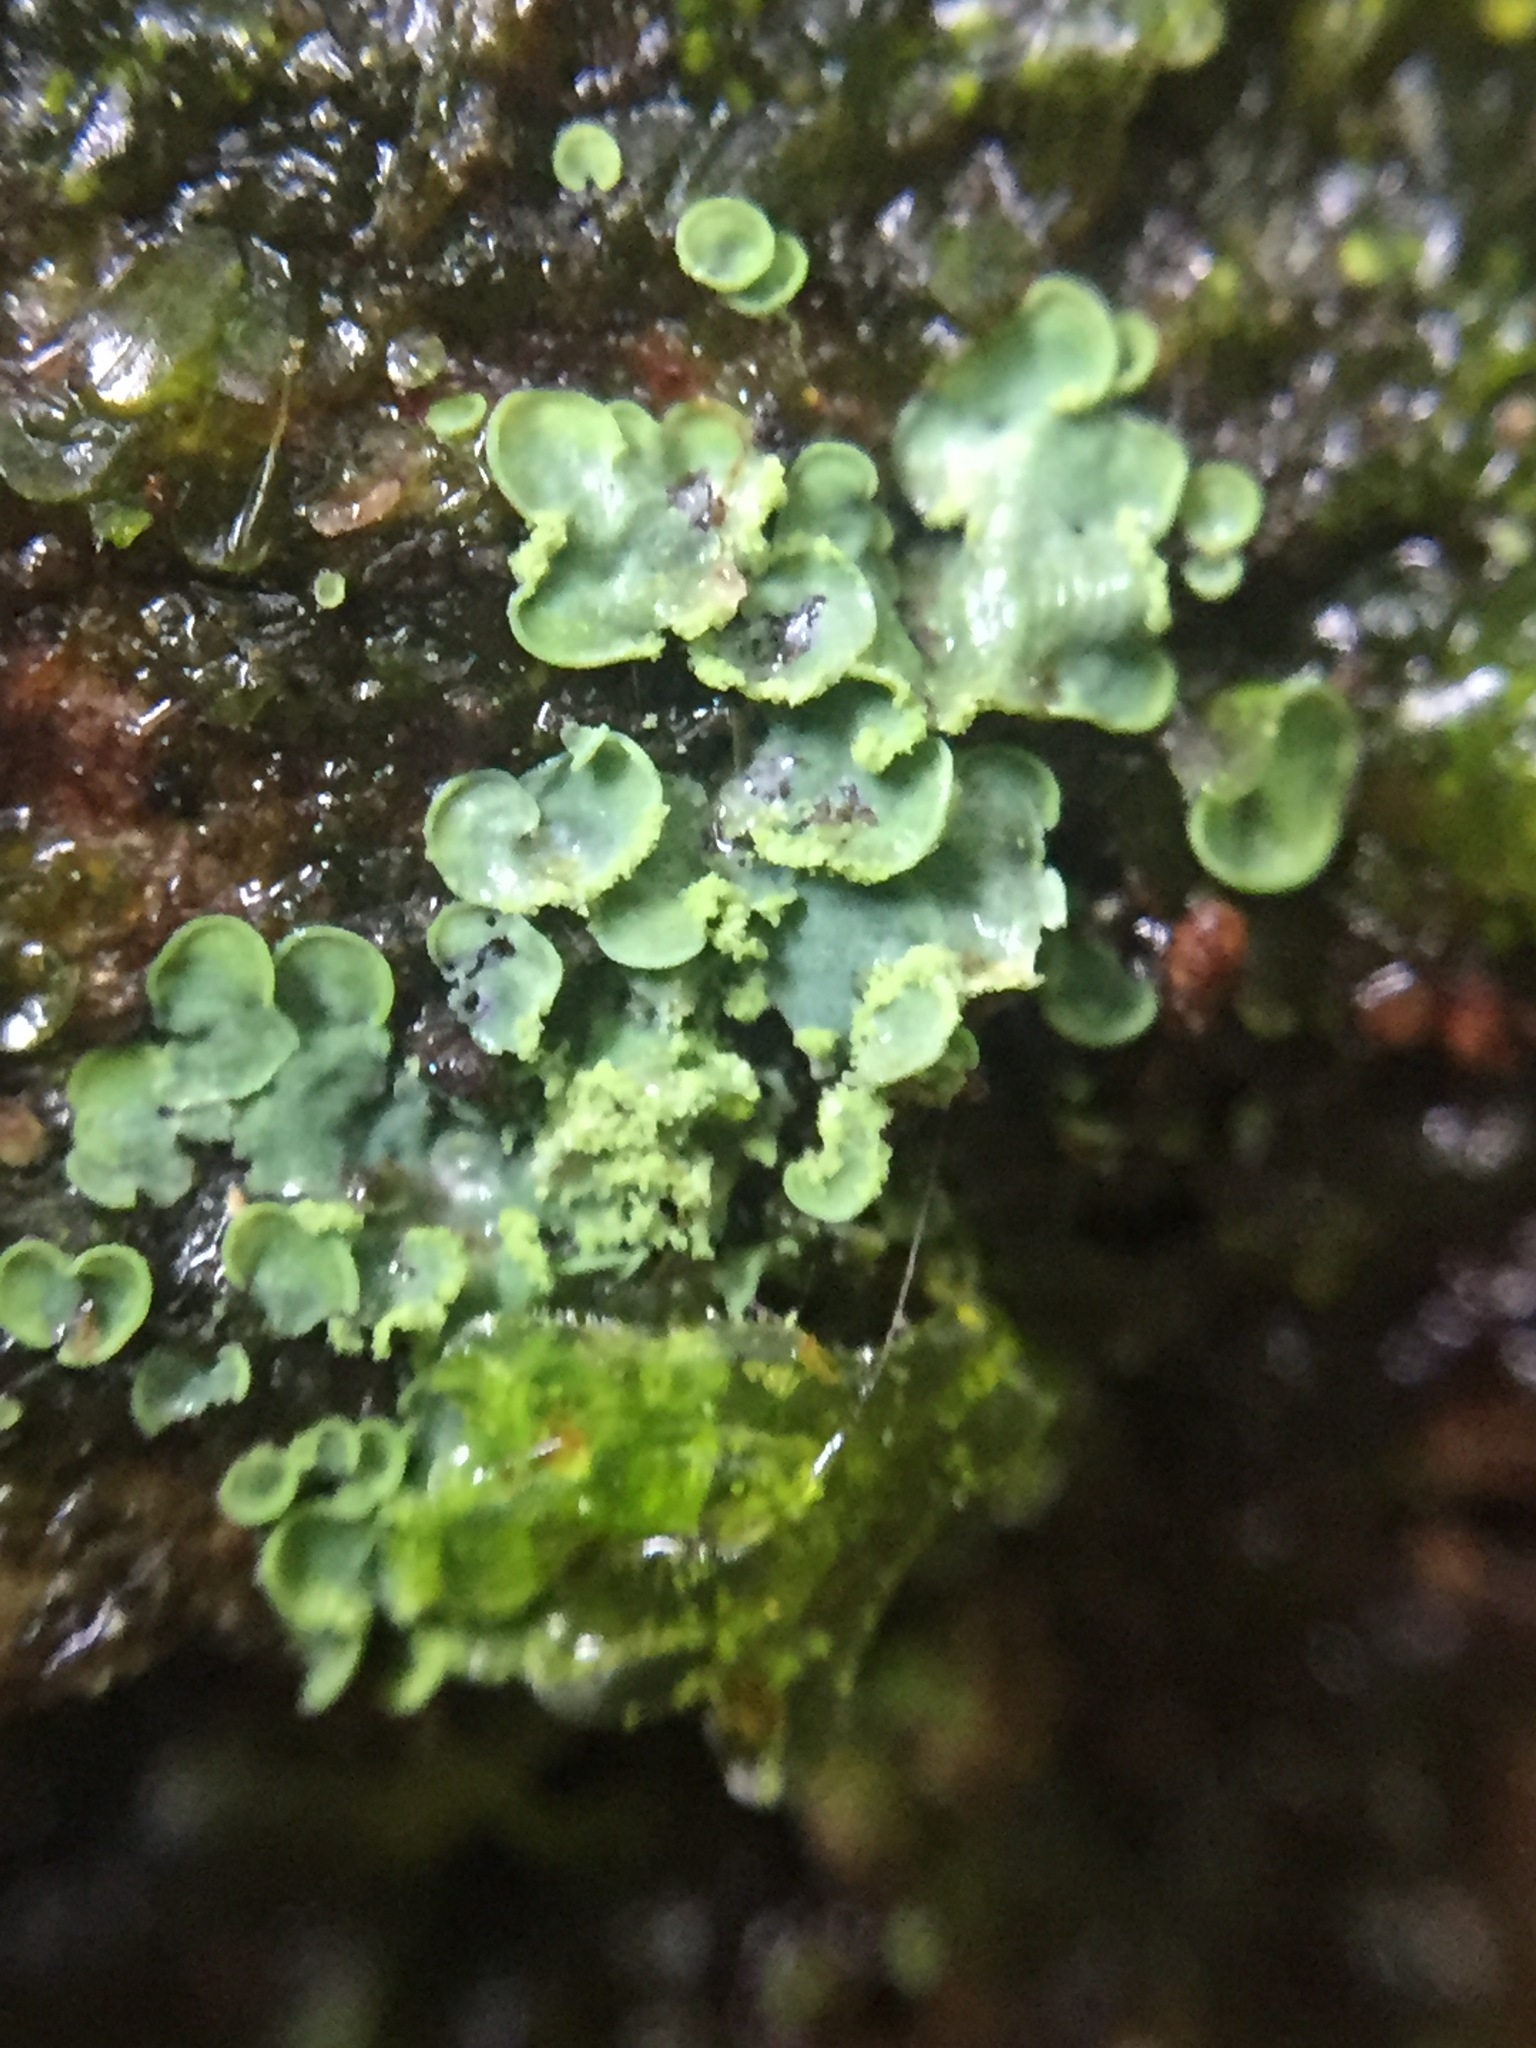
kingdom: Fungi
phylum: Ascomycota
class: Eurotiomycetes
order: Verrucariales
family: Verrucariaceae
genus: Normandina
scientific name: Normandina pulchella
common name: Elf ears lichen
